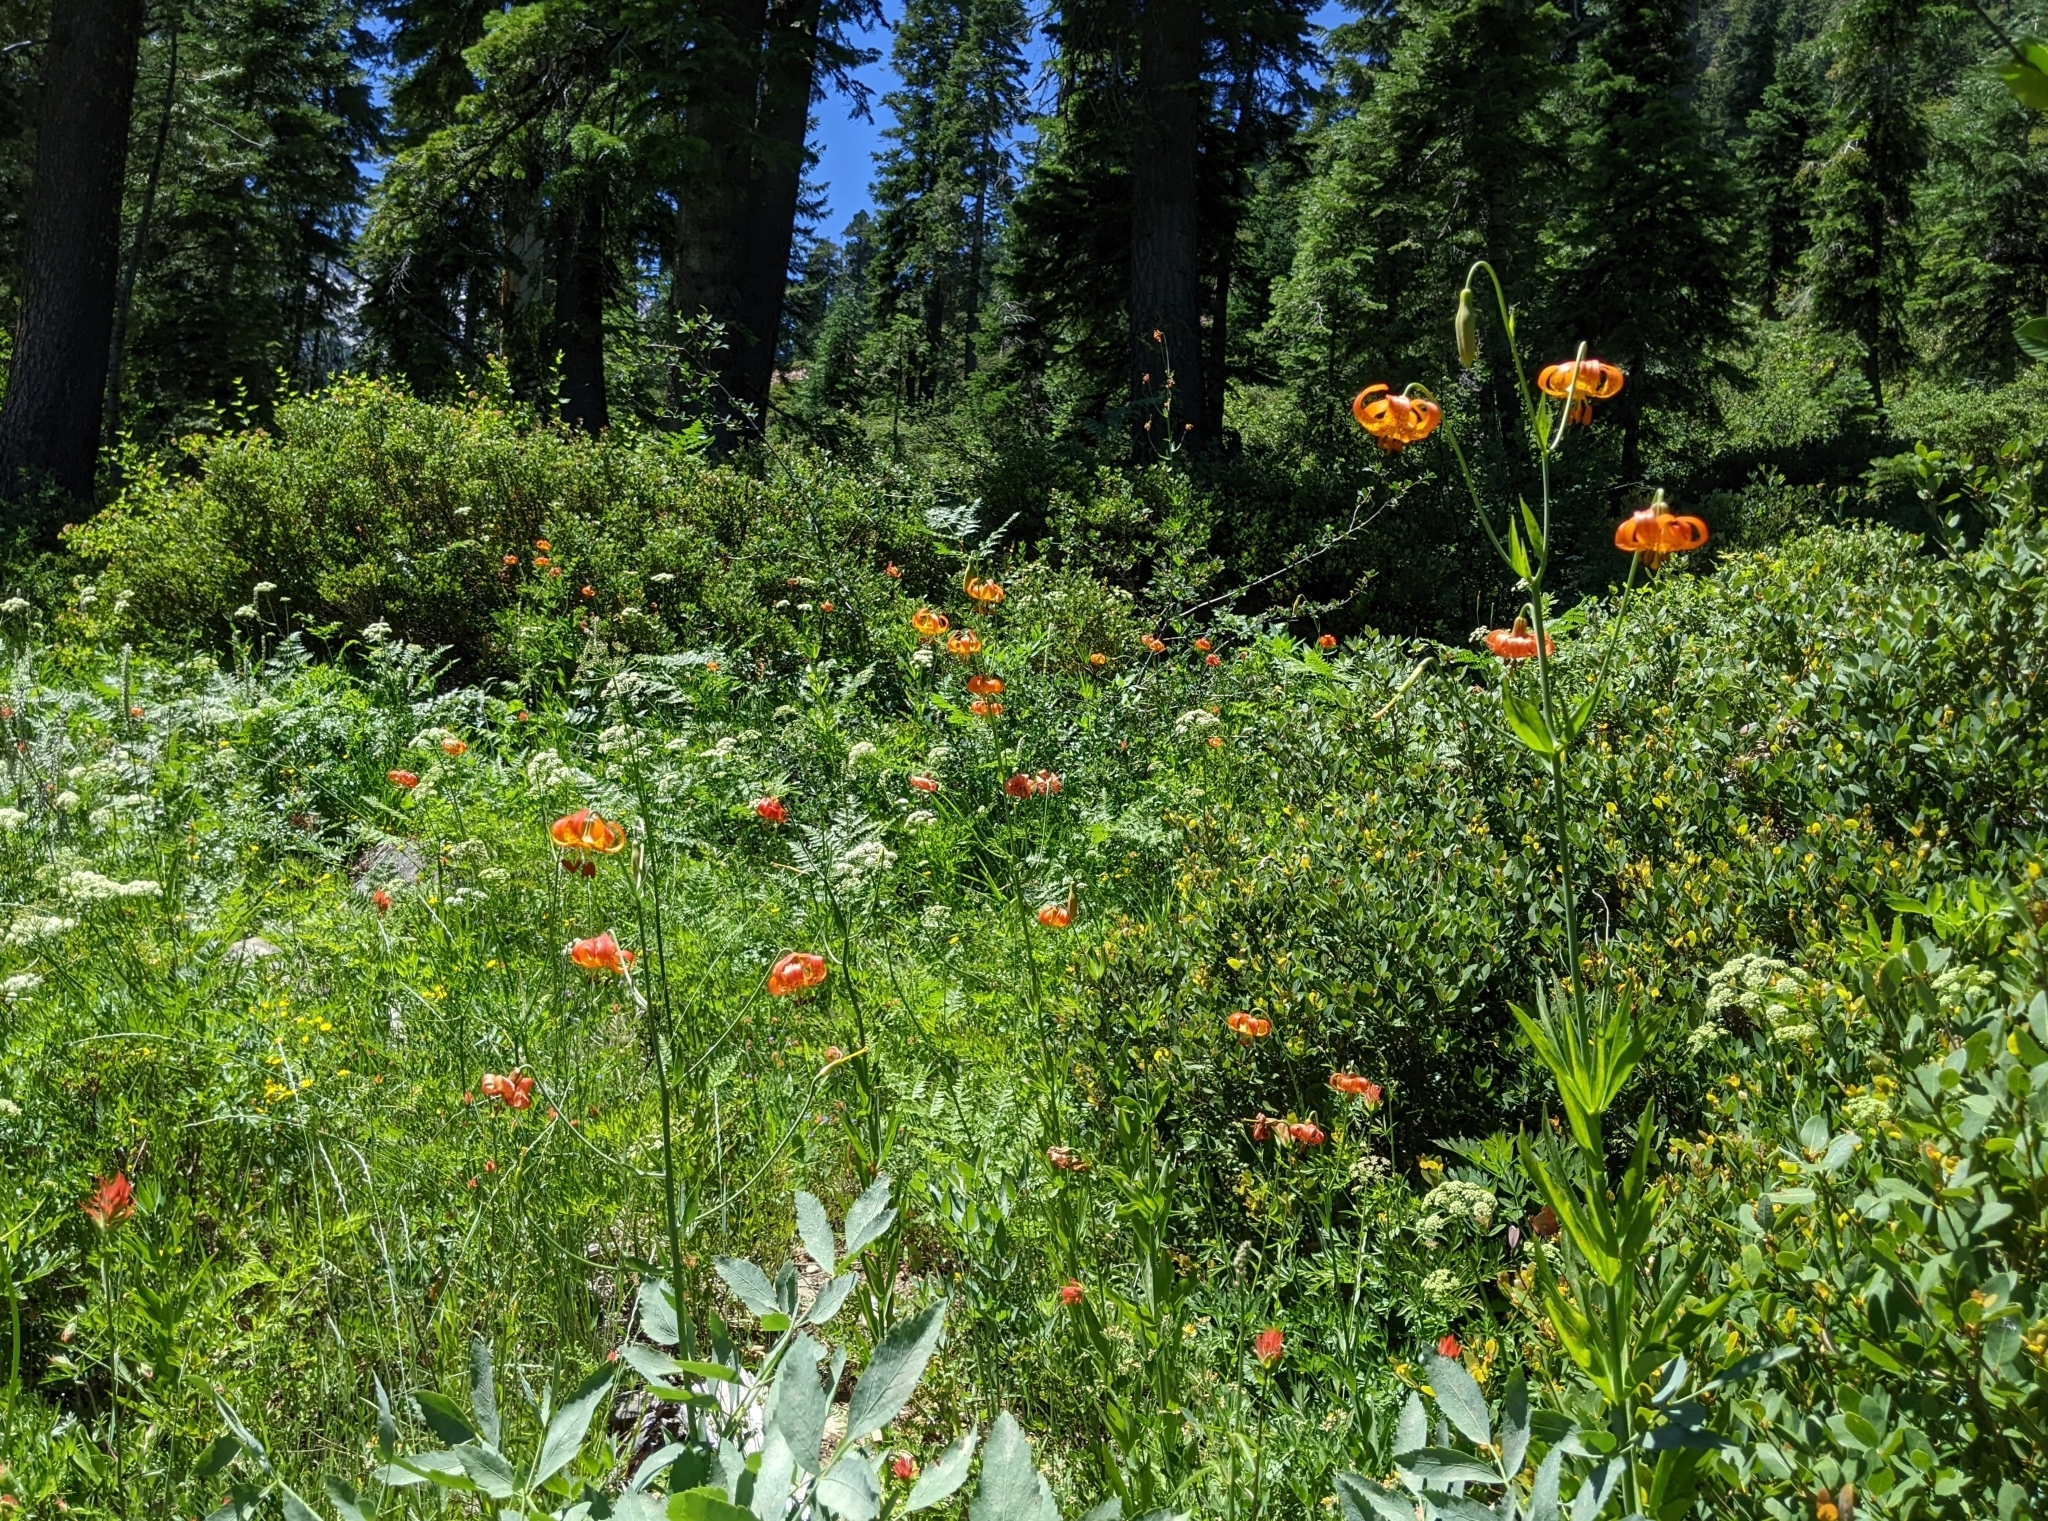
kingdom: Plantae
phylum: Tracheophyta
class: Liliopsida
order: Liliales
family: Liliaceae
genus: Lilium
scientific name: Lilium pardalinum
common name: Panther lily
